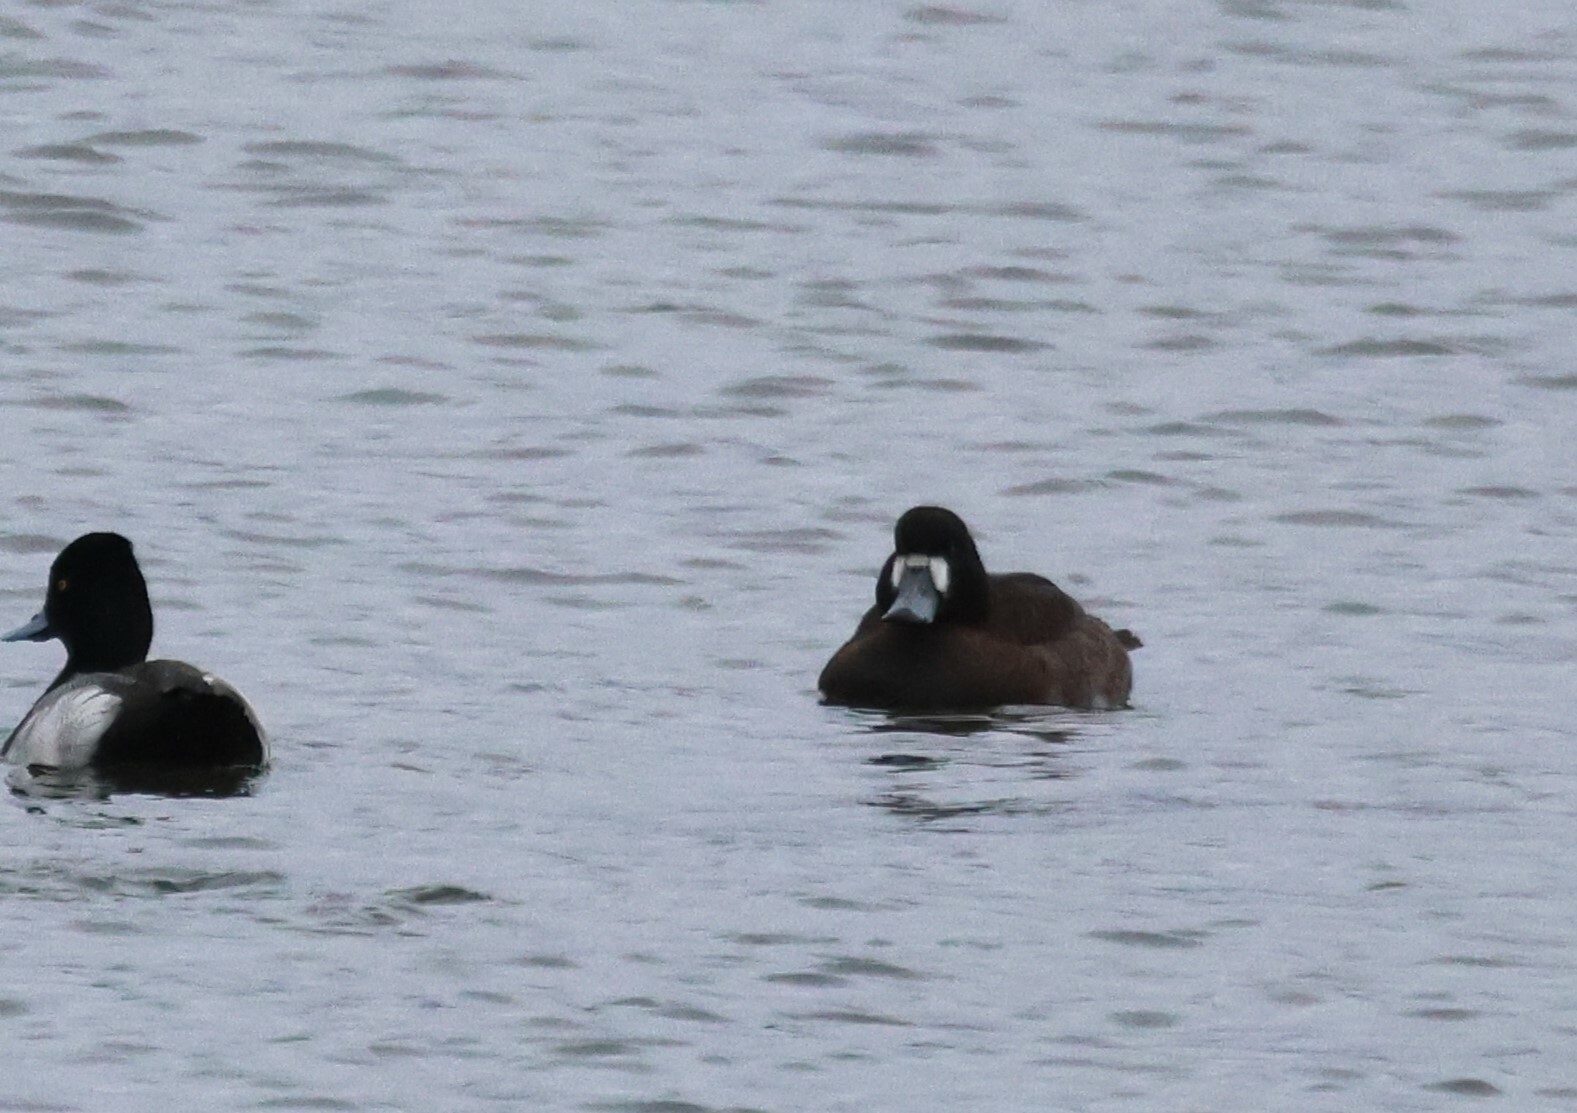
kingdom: Animalia
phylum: Chordata
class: Aves
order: Anseriformes
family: Anatidae
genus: Aythya
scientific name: Aythya marila
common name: Greater scaup
